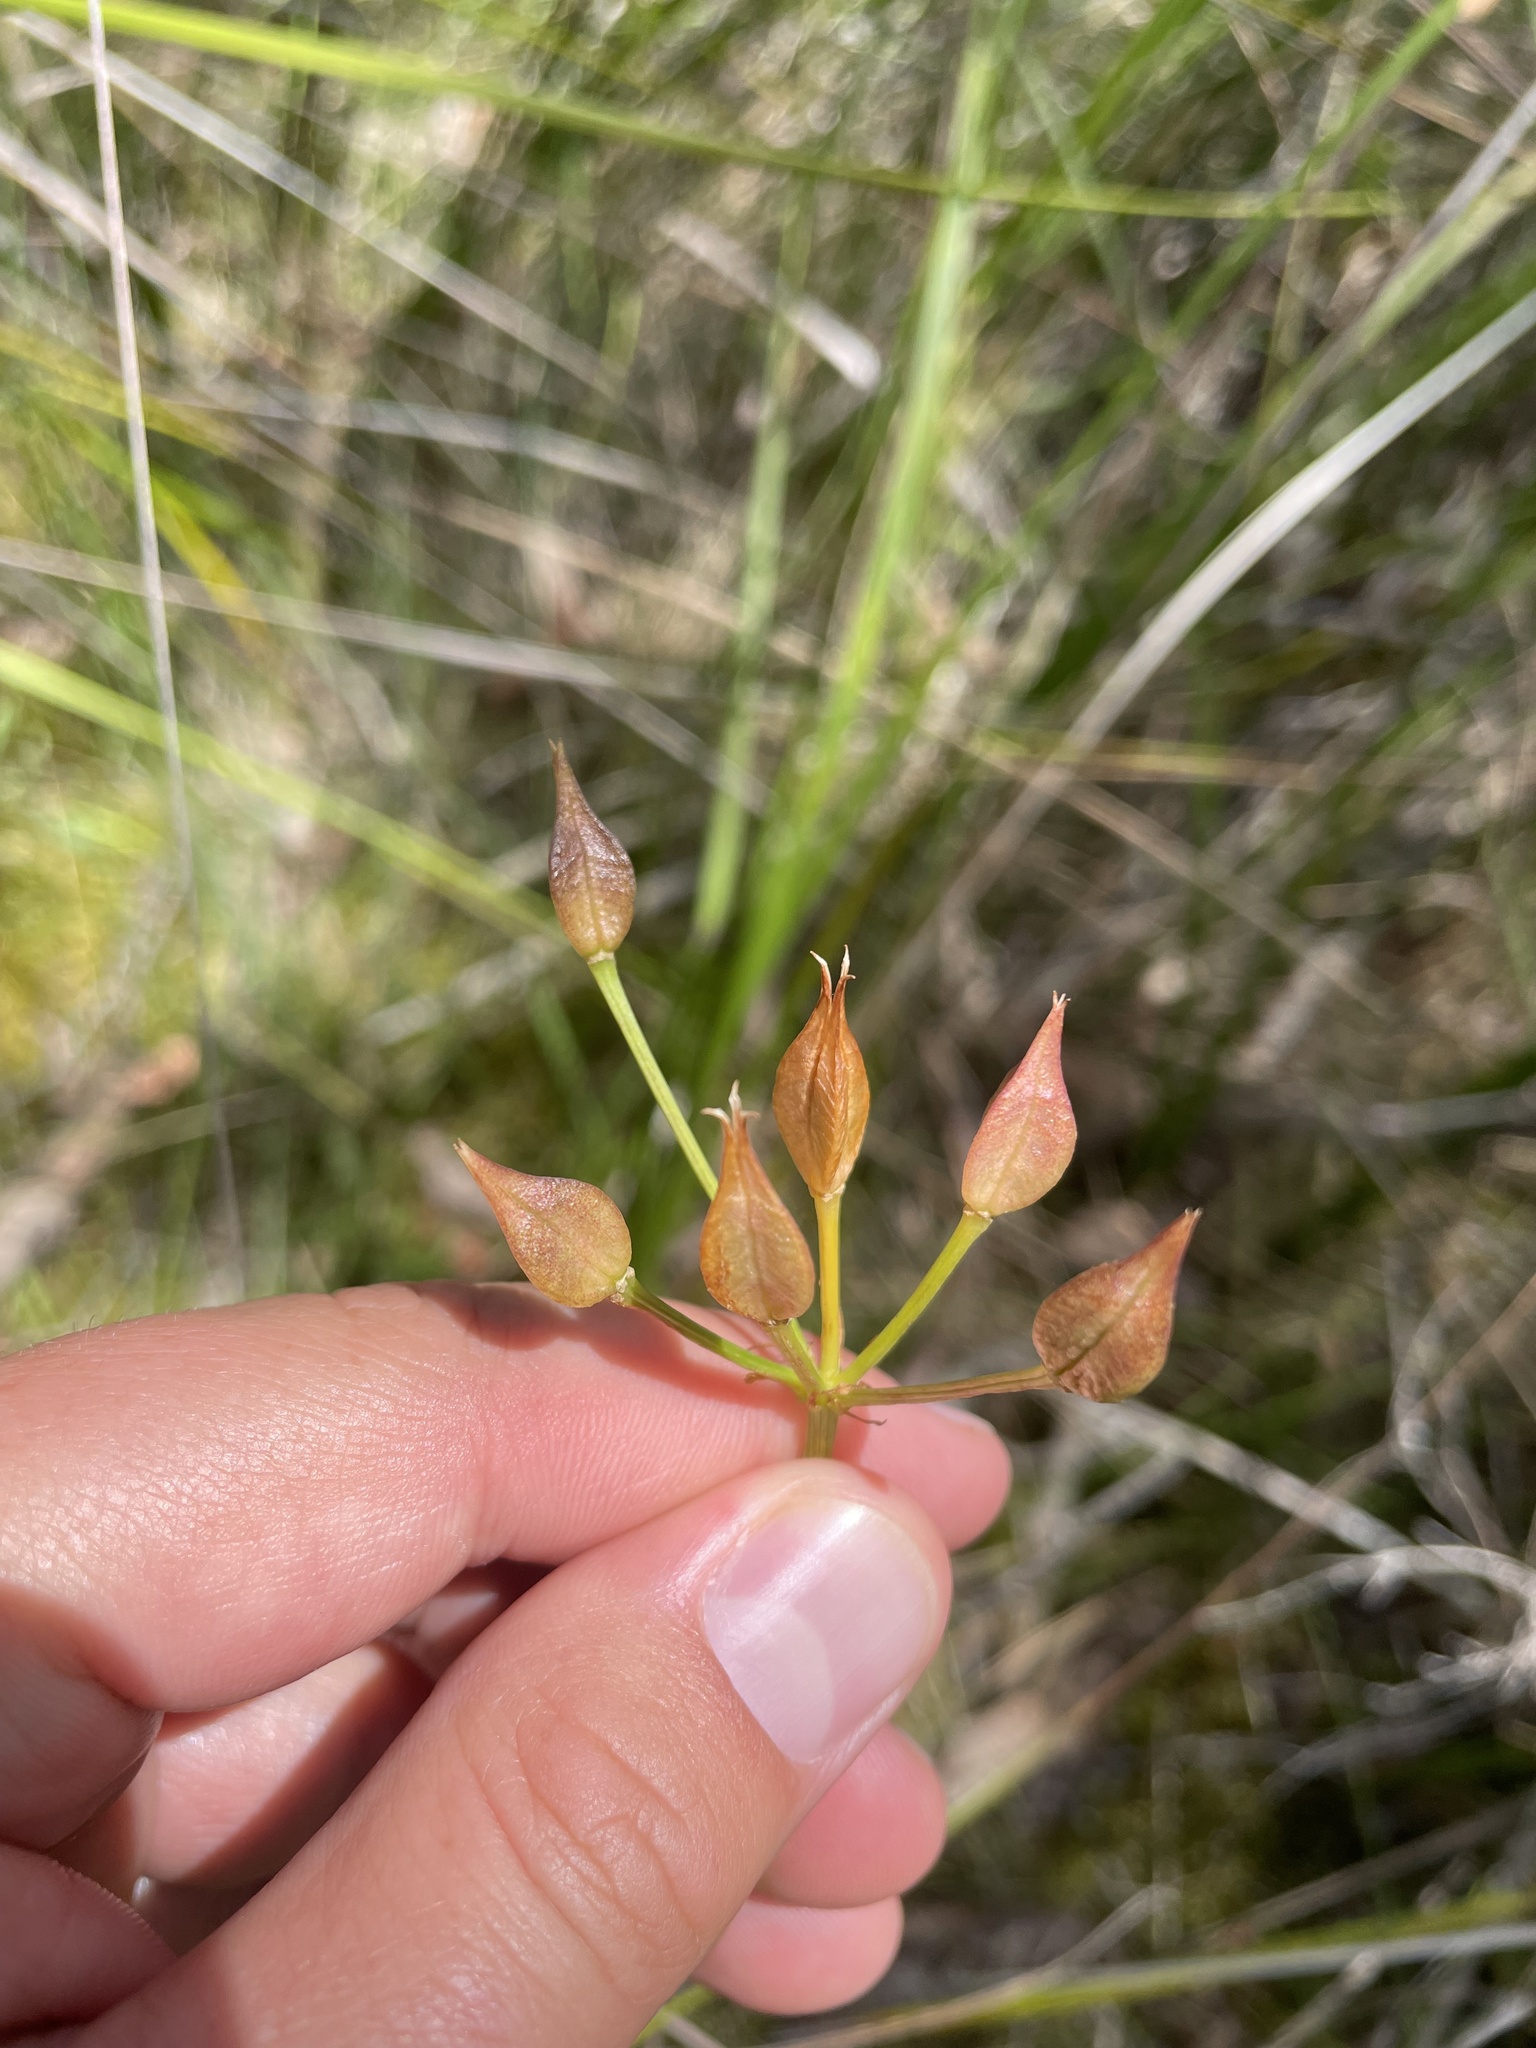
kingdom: Plantae
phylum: Tracheophyta
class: Liliopsida
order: Liliales
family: Colchicaceae
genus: Burchardia
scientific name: Burchardia umbellata
